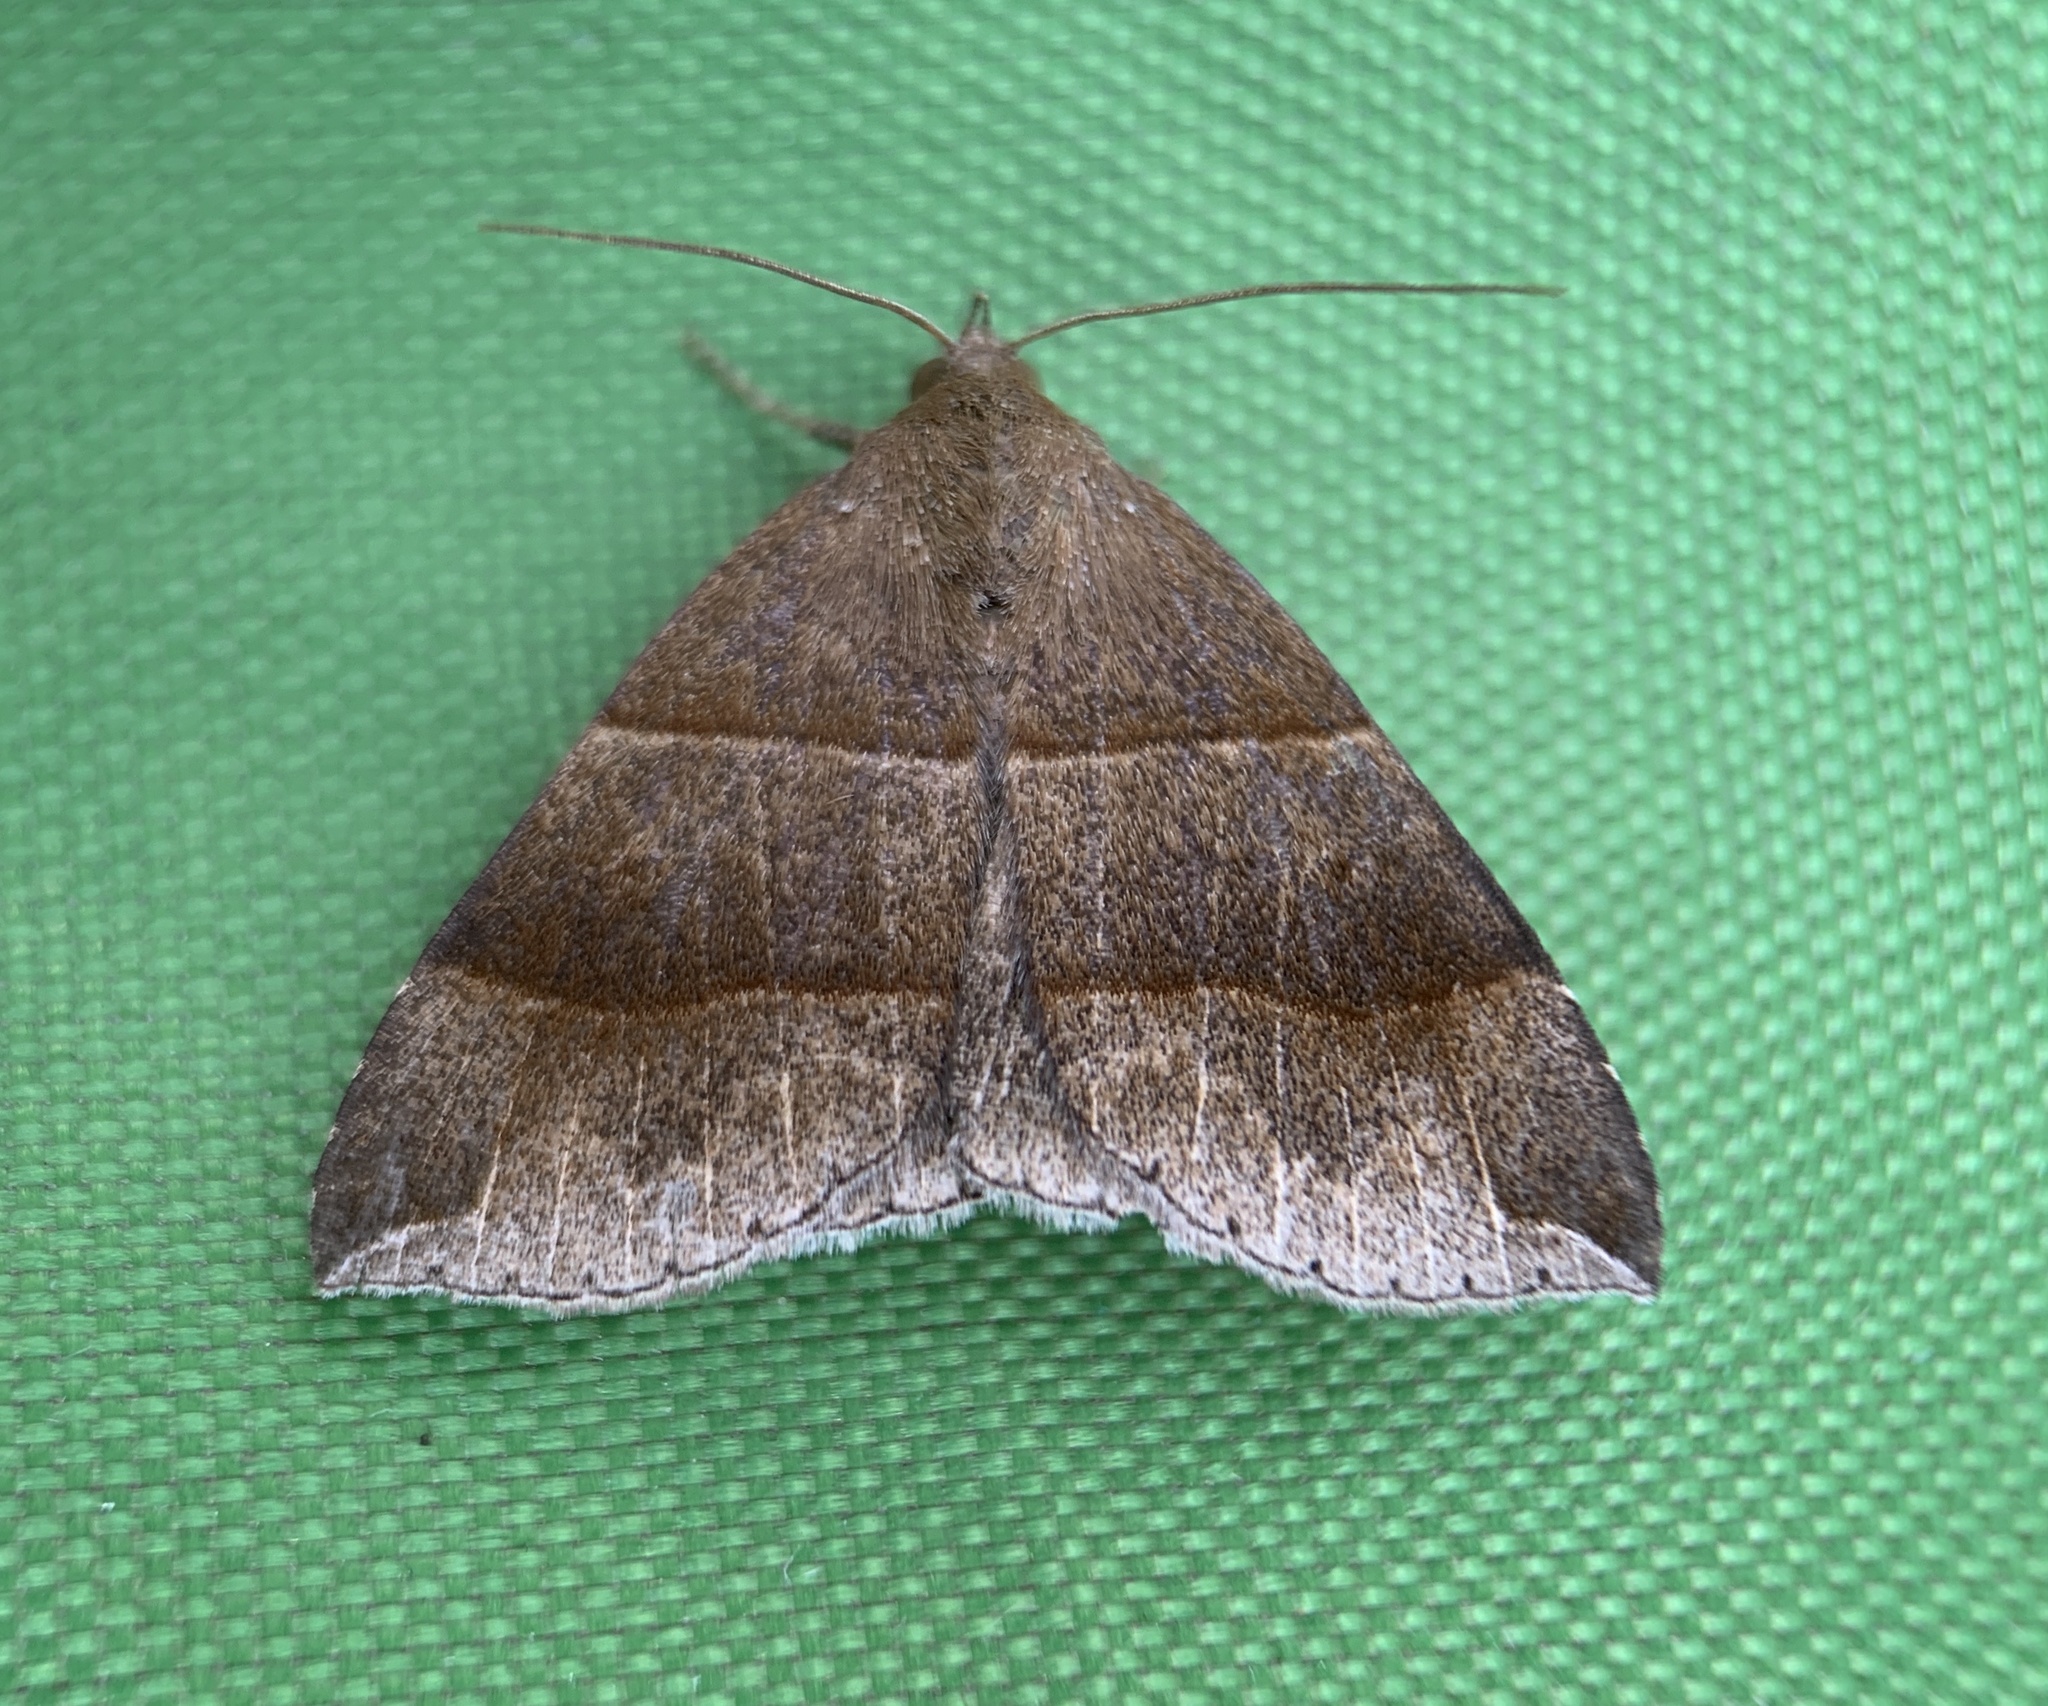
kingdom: Animalia
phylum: Arthropoda
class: Insecta
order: Lepidoptera
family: Erebidae
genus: Parallelia
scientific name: Parallelia bistriaris
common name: Maple looper moth
